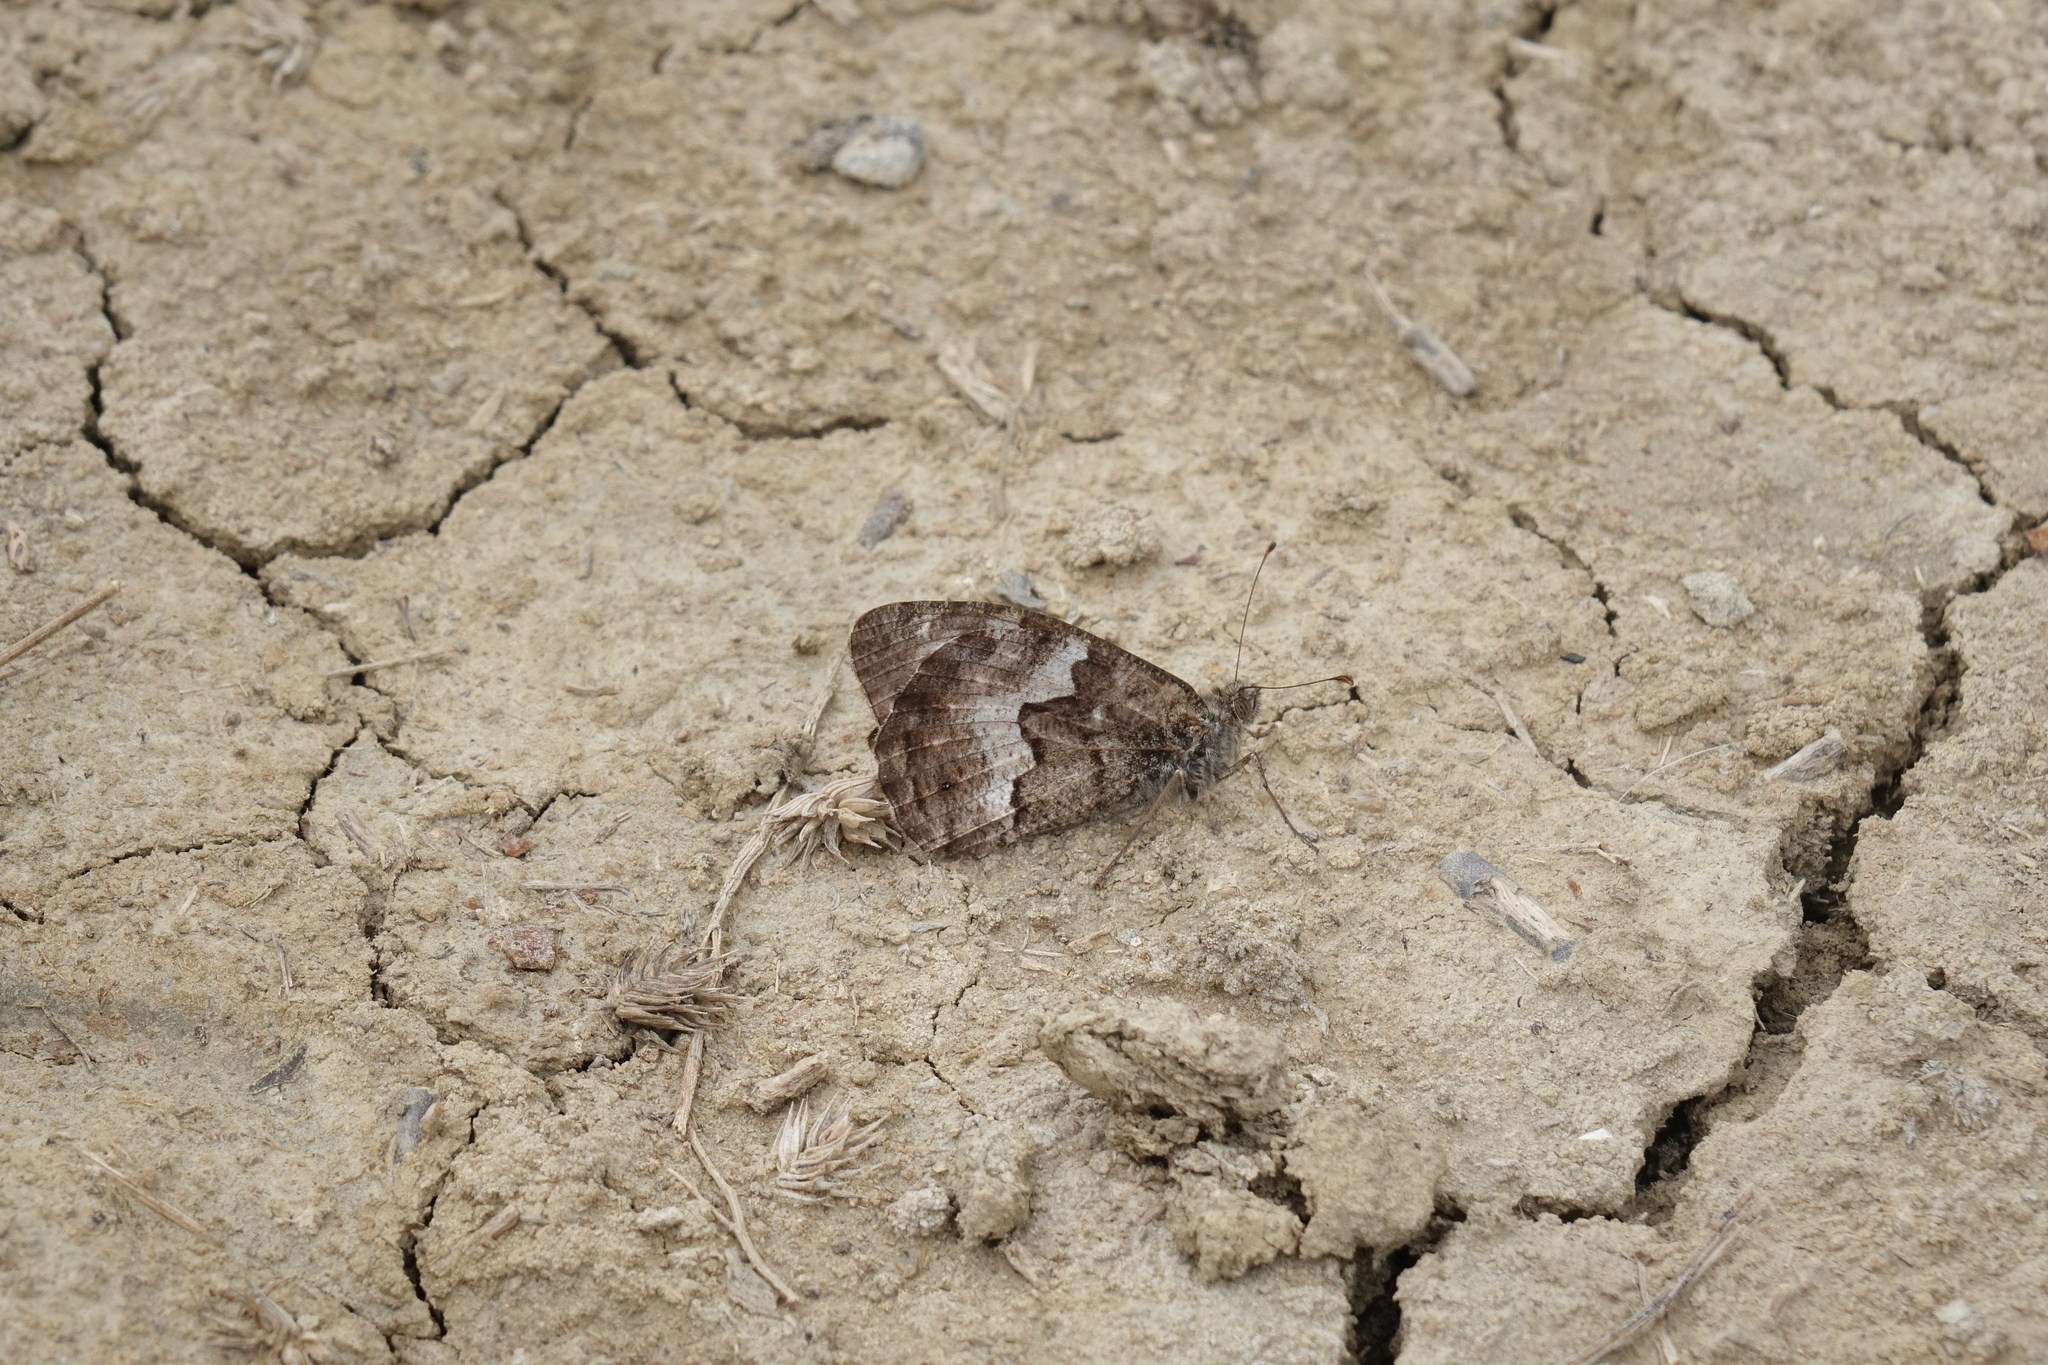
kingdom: Animalia
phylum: Arthropoda
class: Insecta
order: Lepidoptera
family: Nymphalidae
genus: Hipparchia
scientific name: Hipparchia pellucida
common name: Lesbos grayling
